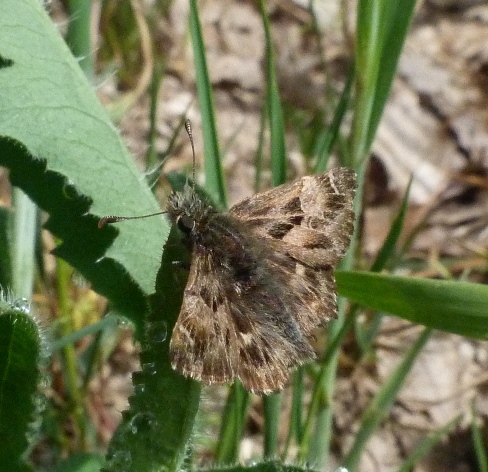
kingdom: Animalia
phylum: Arthropoda
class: Insecta
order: Lepidoptera
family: Hesperiidae
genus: Carcharodus
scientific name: Carcharodus alceae
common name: Mallow skipper
